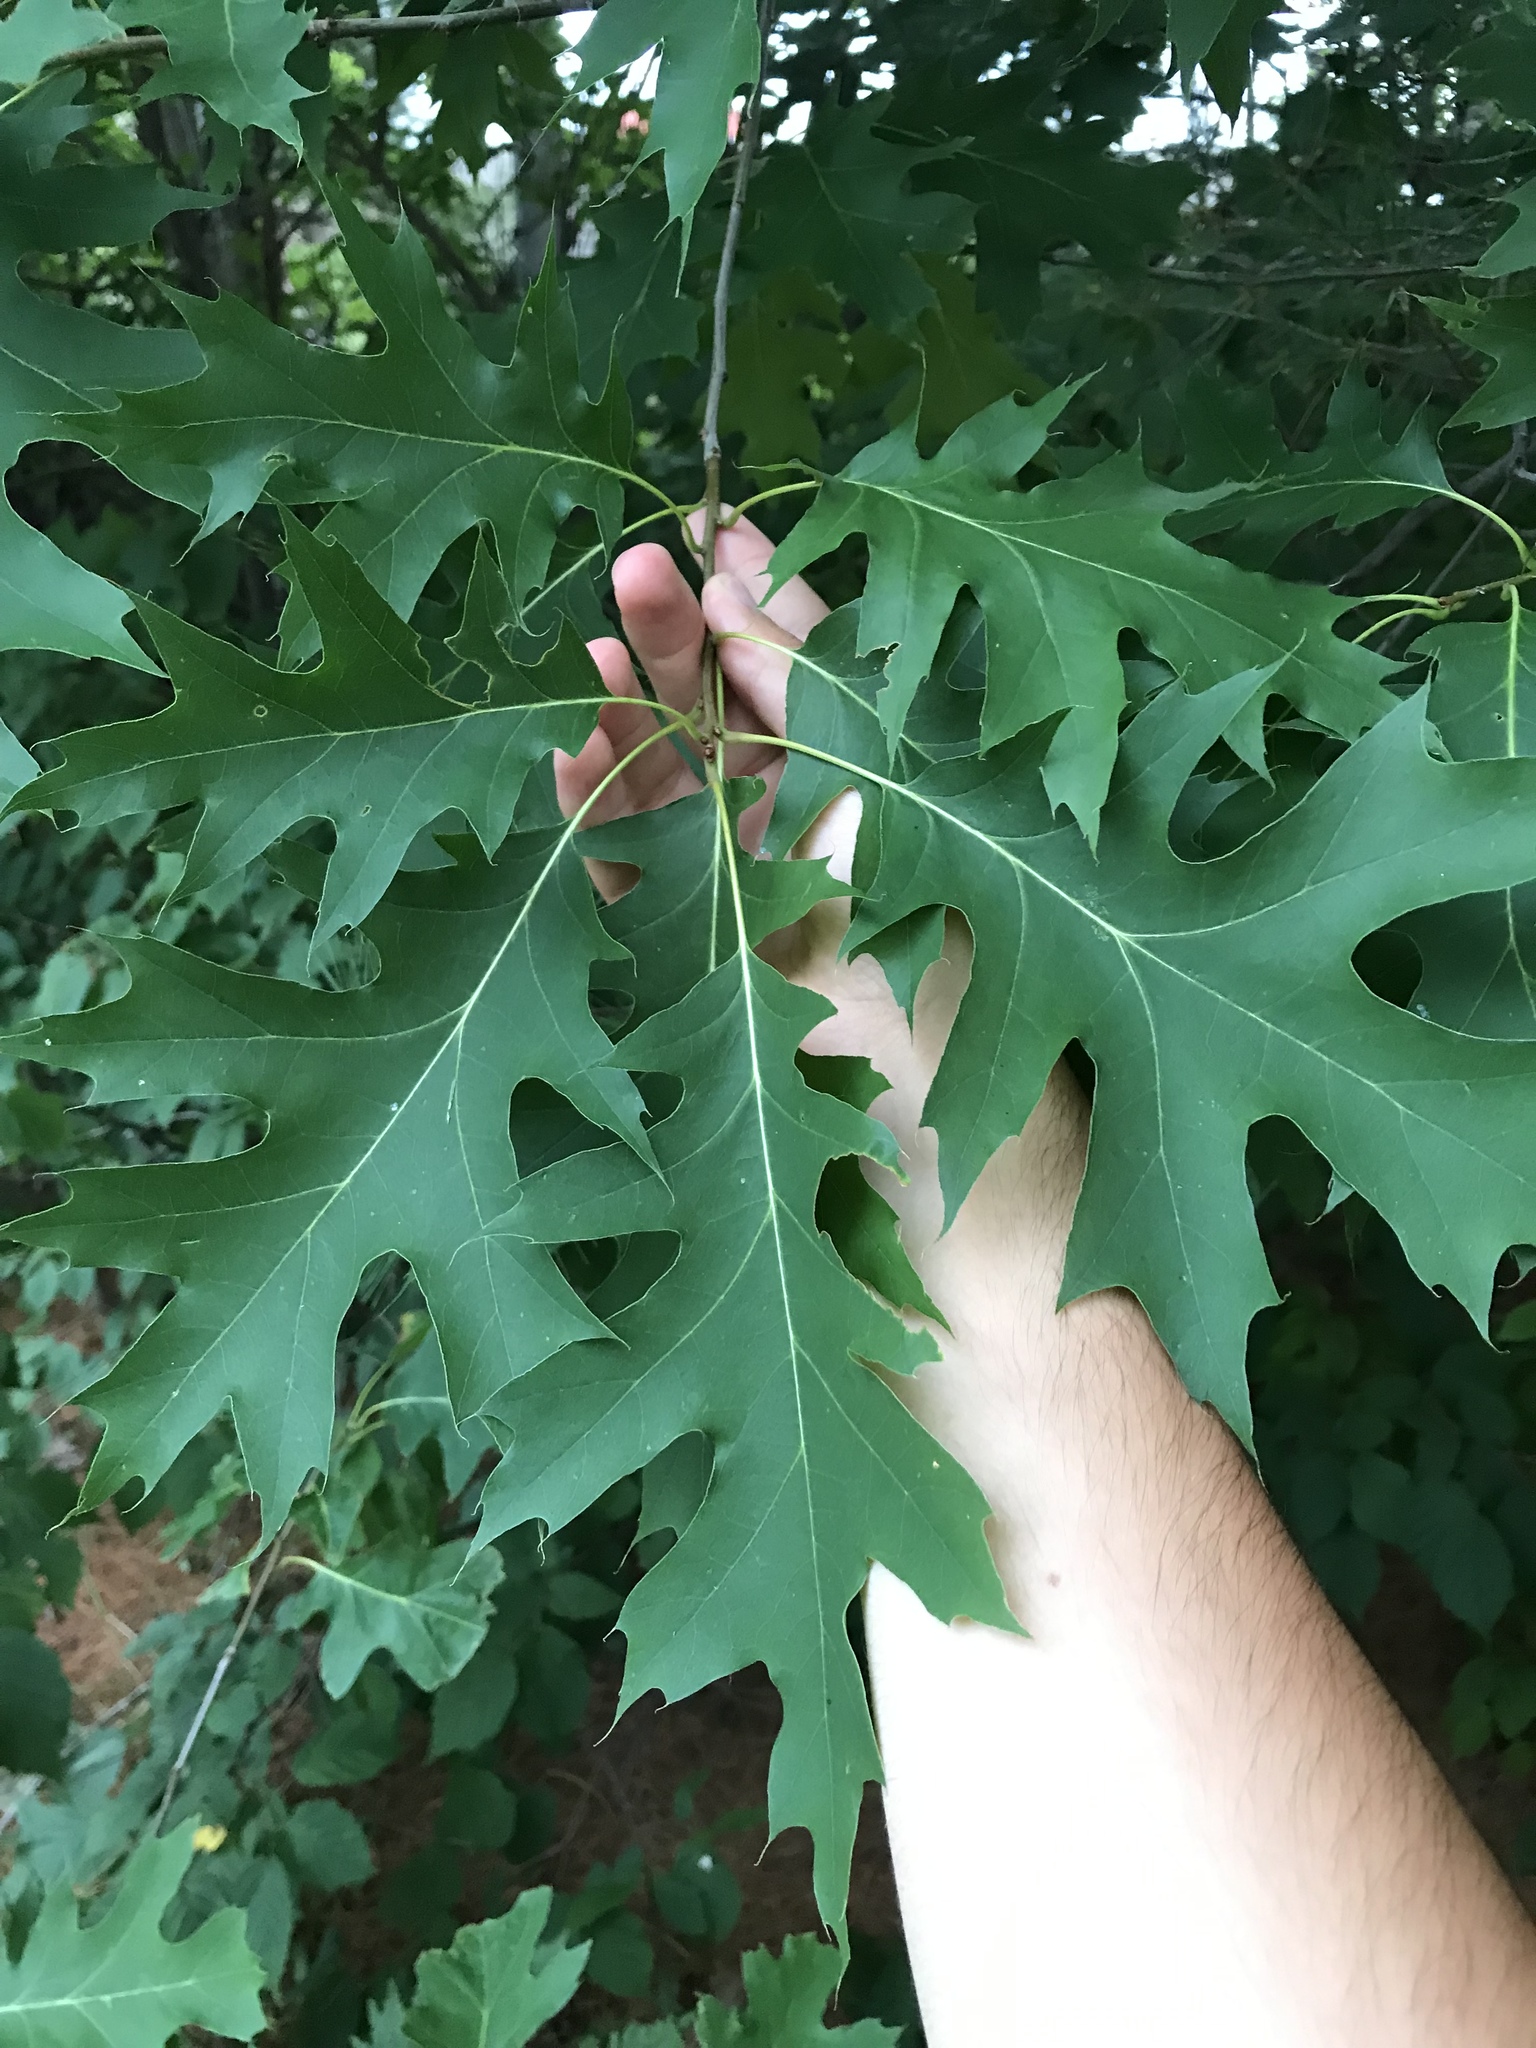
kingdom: Plantae
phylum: Tracheophyta
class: Magnoliopsida
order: Fagales
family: Fagaceae
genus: Quercus
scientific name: Quercus rubra
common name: Red oak
